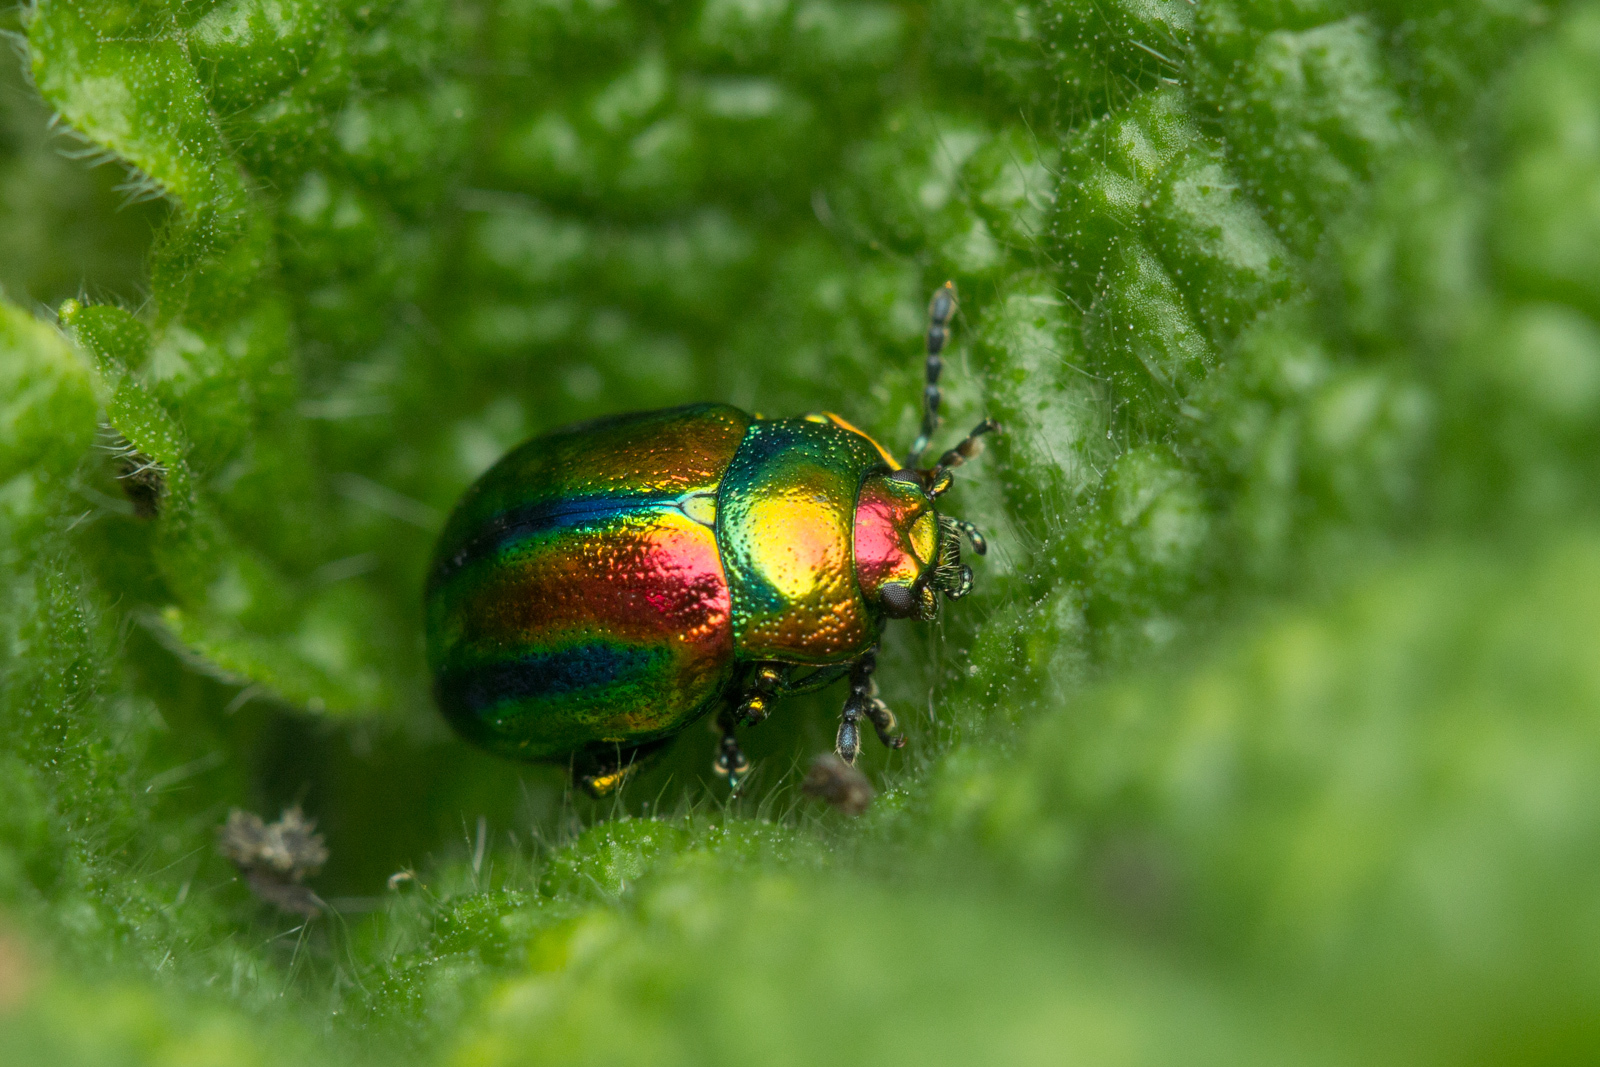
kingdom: Animalia
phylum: Arthropoda
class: Insecta
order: Coleoptera
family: Chrysomelidae
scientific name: Chrysomelidae
